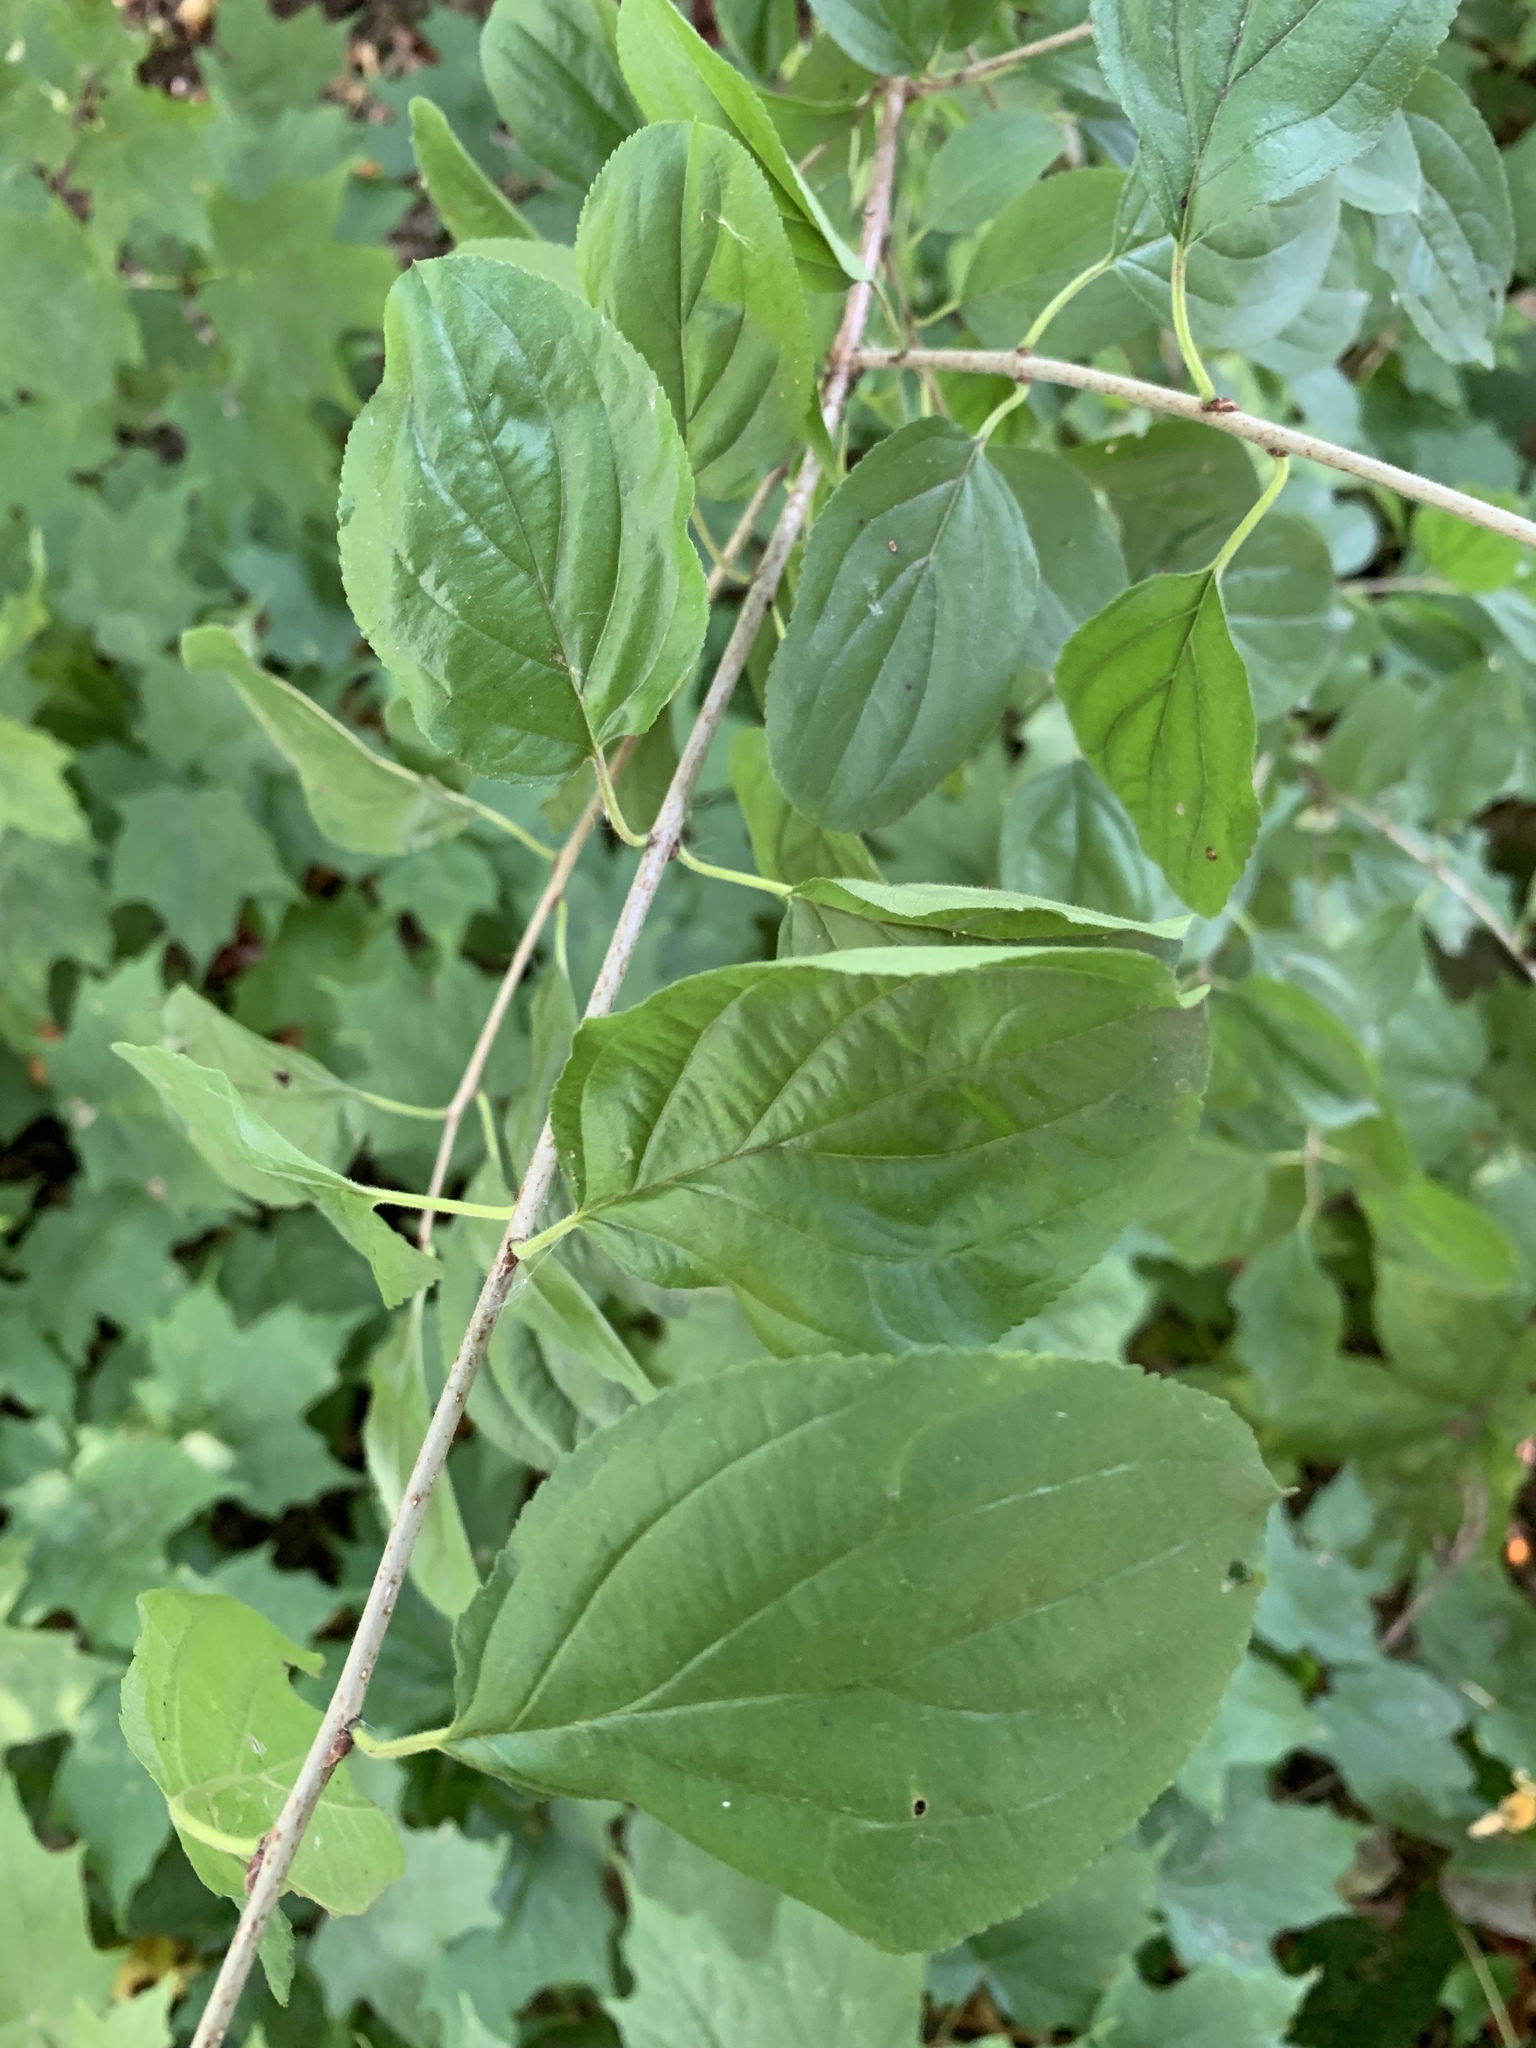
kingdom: Plantae
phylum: Tracheophyta
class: Magnoliopsida
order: Rosales
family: Rhamnaceae
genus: Rhamnus
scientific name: Rhamnus cathartica
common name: Common buckthorn
